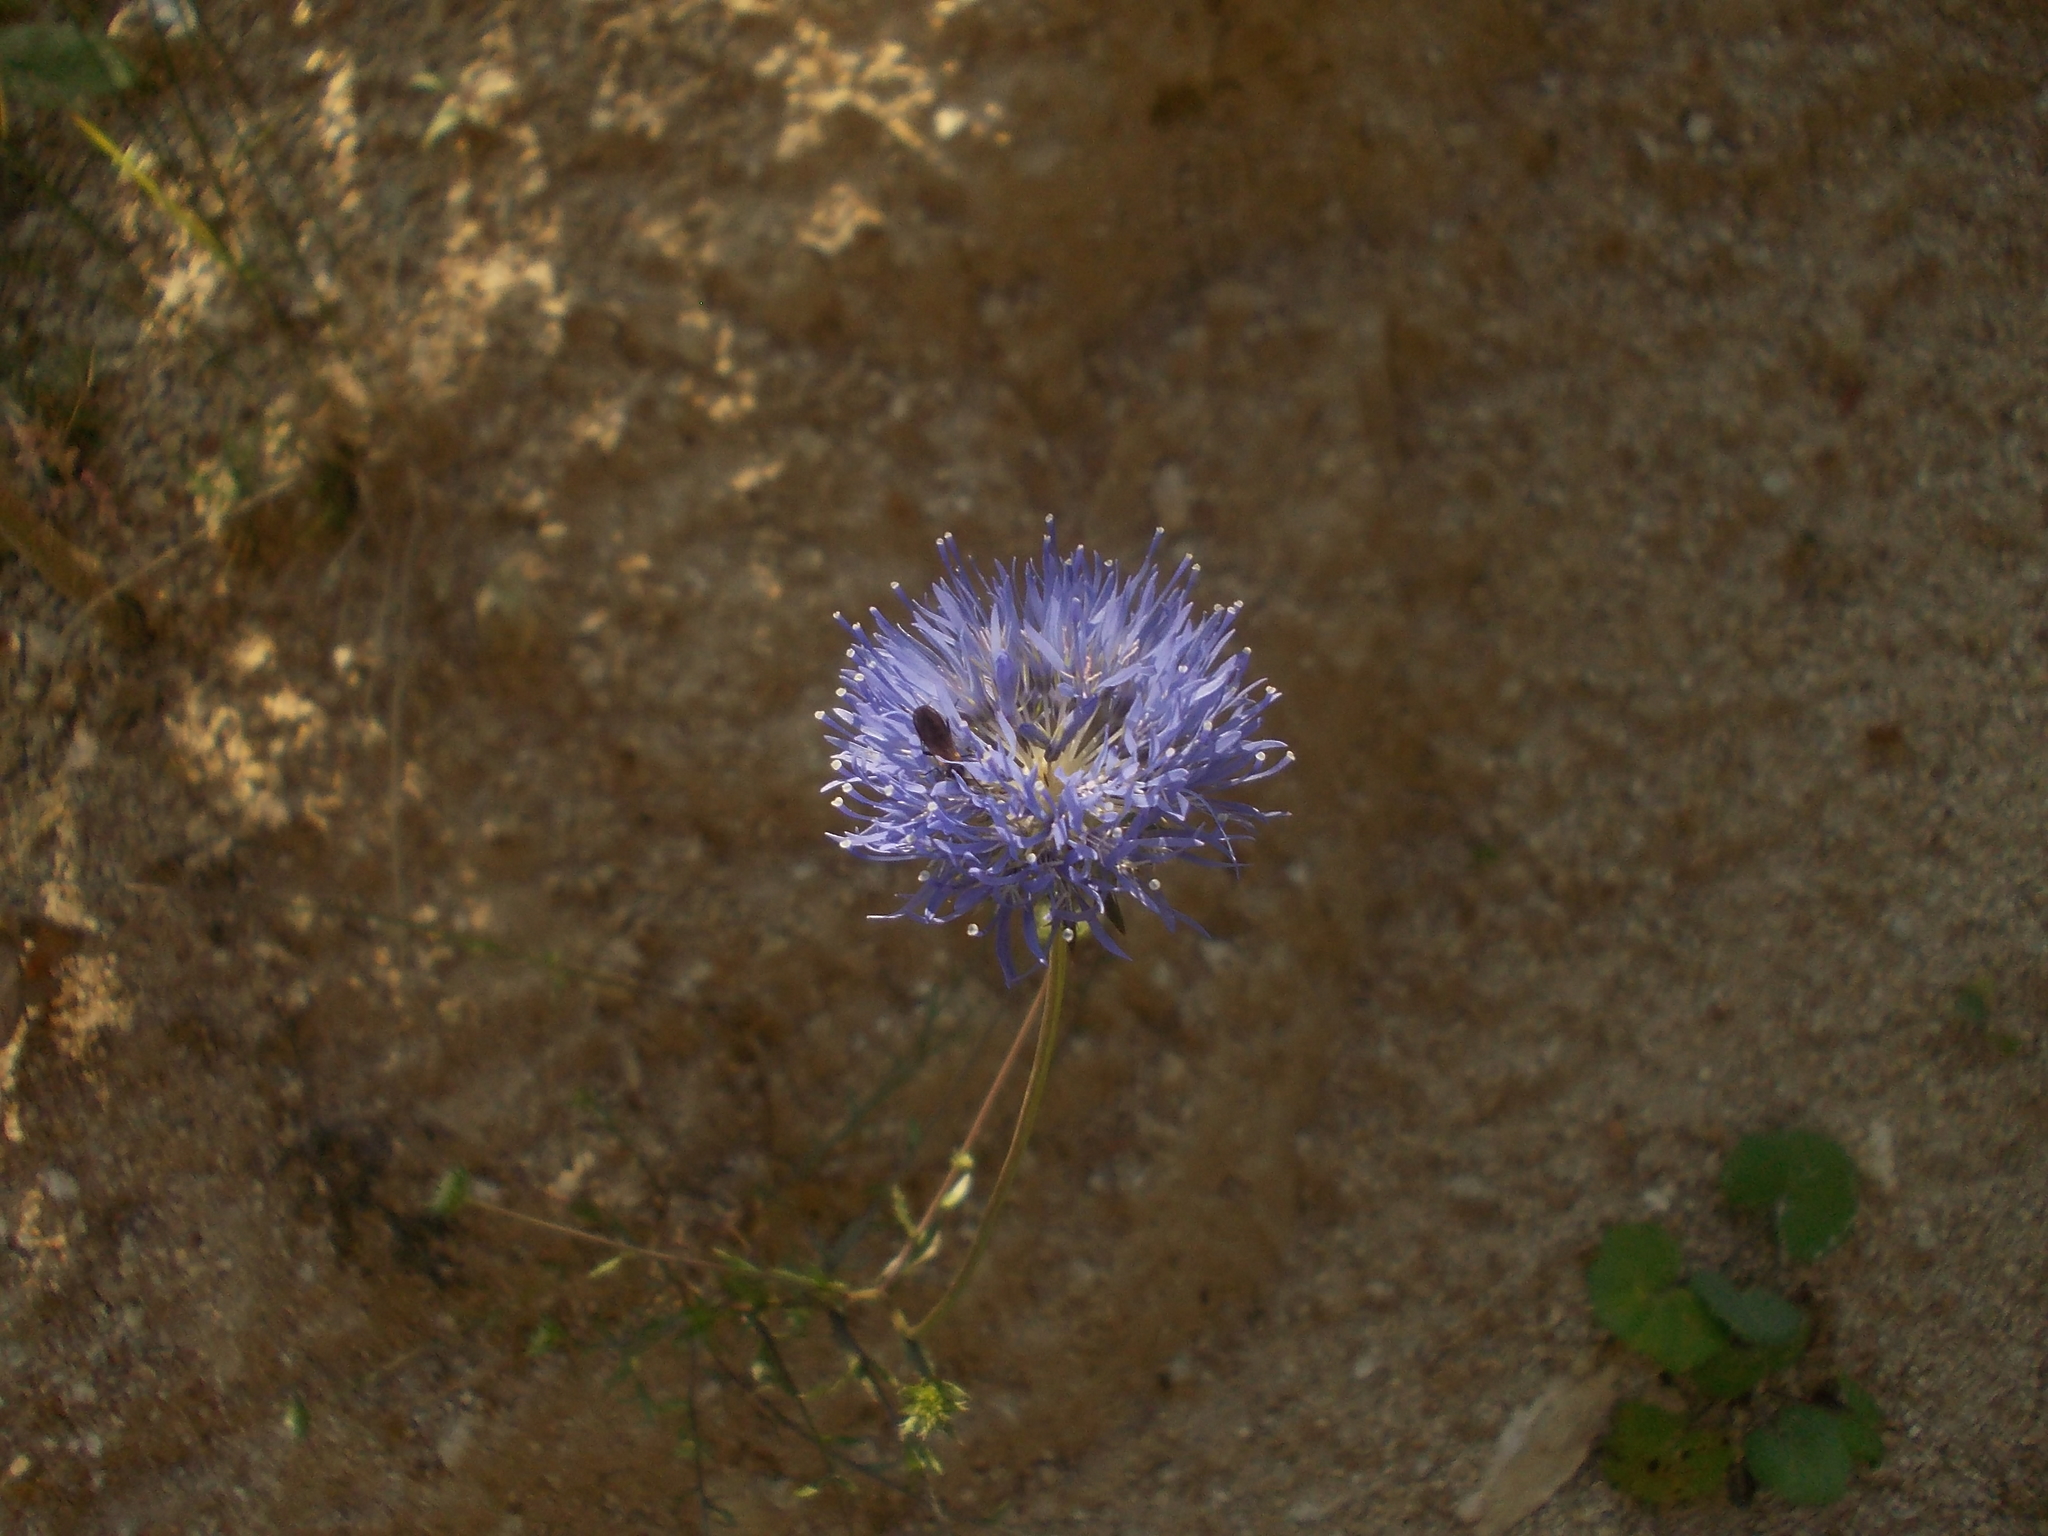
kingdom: Plantae
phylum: Tracheophyta
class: Magnoliopsida
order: Asterales
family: Campanulaceae
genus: Jasione
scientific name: Jasione heldreichii
